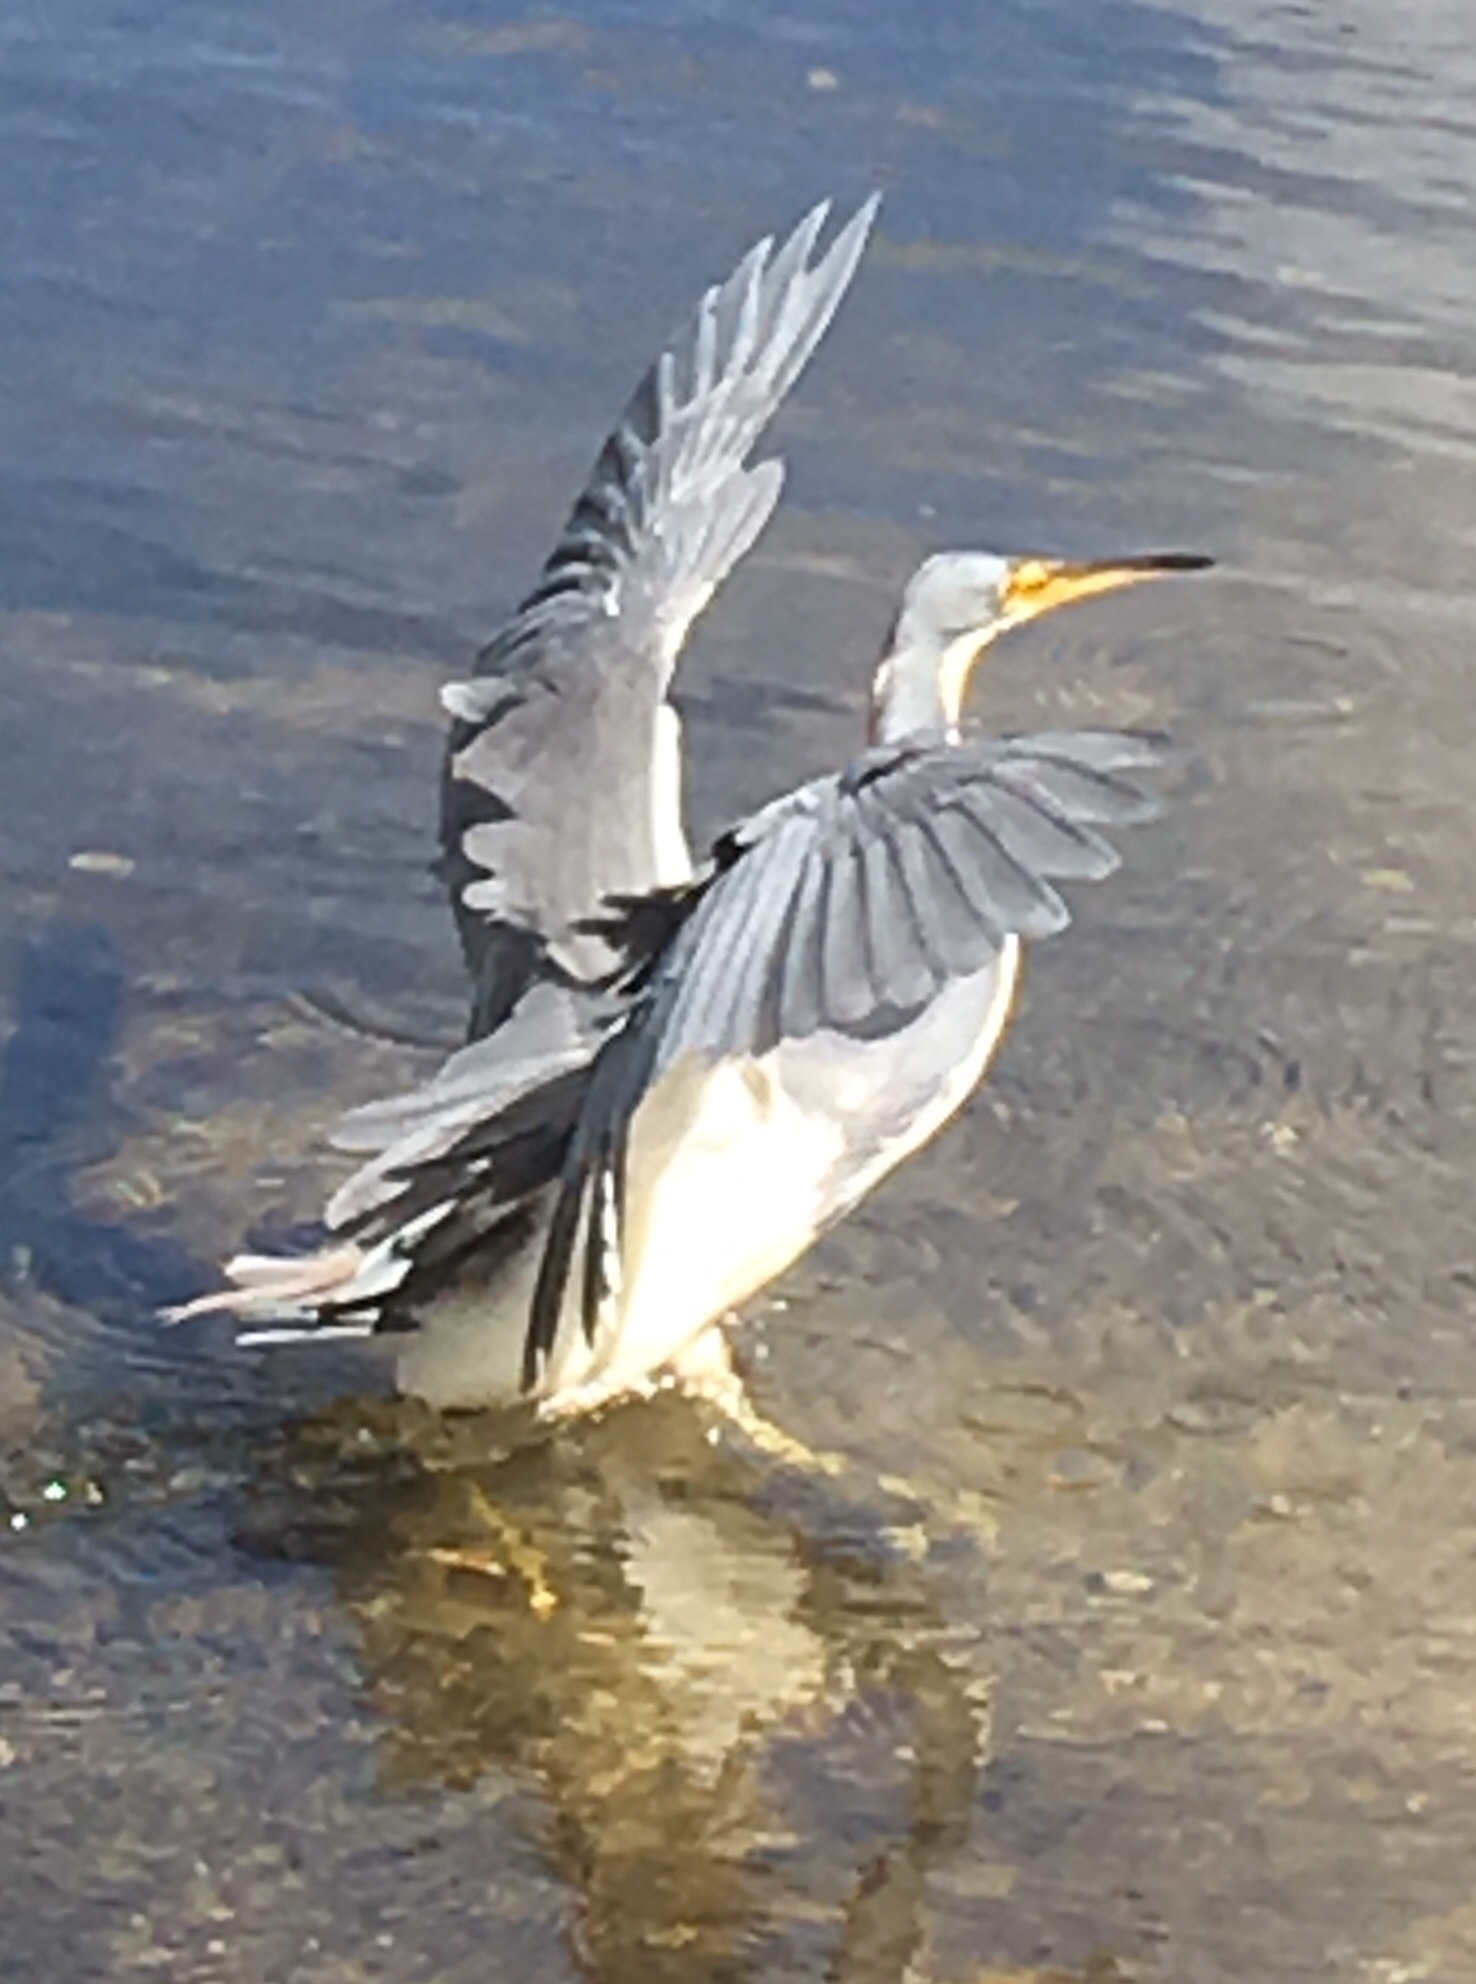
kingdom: Animalia
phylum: Chordata
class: Aves
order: Pelecaniformes
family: Ardeidae
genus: Egretta
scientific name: Egretta tricolor
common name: Tricolored heron
